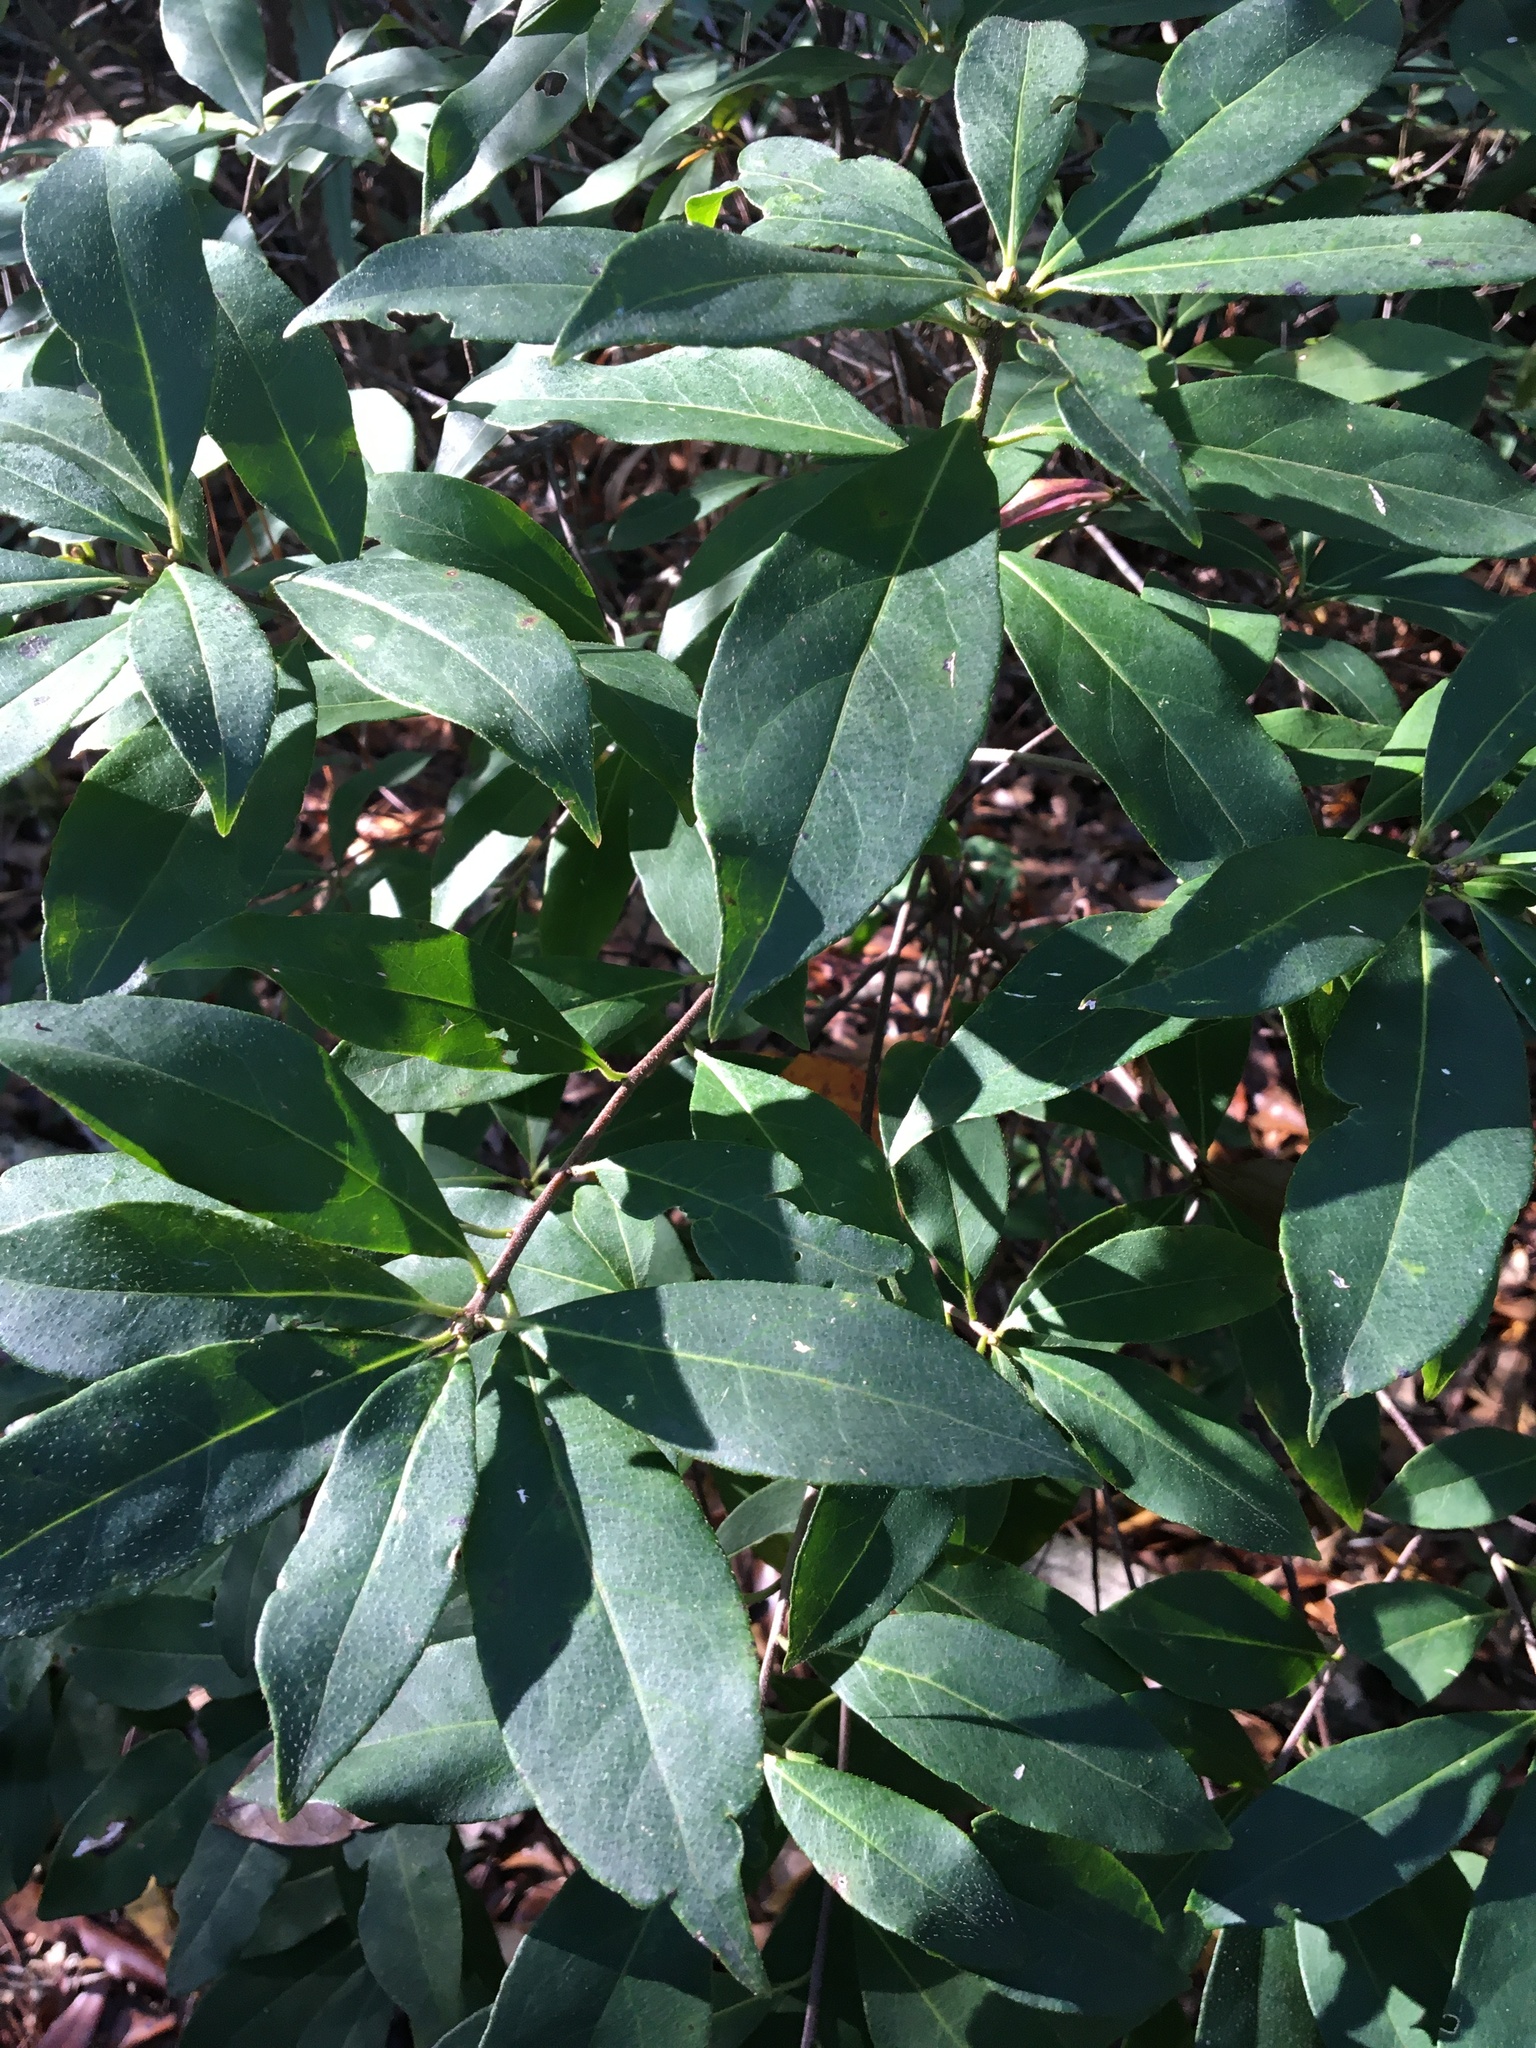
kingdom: Plantae
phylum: Tracheophyta
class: Magnoliopsida
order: Ericales
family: Symplocaceae
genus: Symplocos
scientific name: Symplocos tinctoria
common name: Horse-sugar
